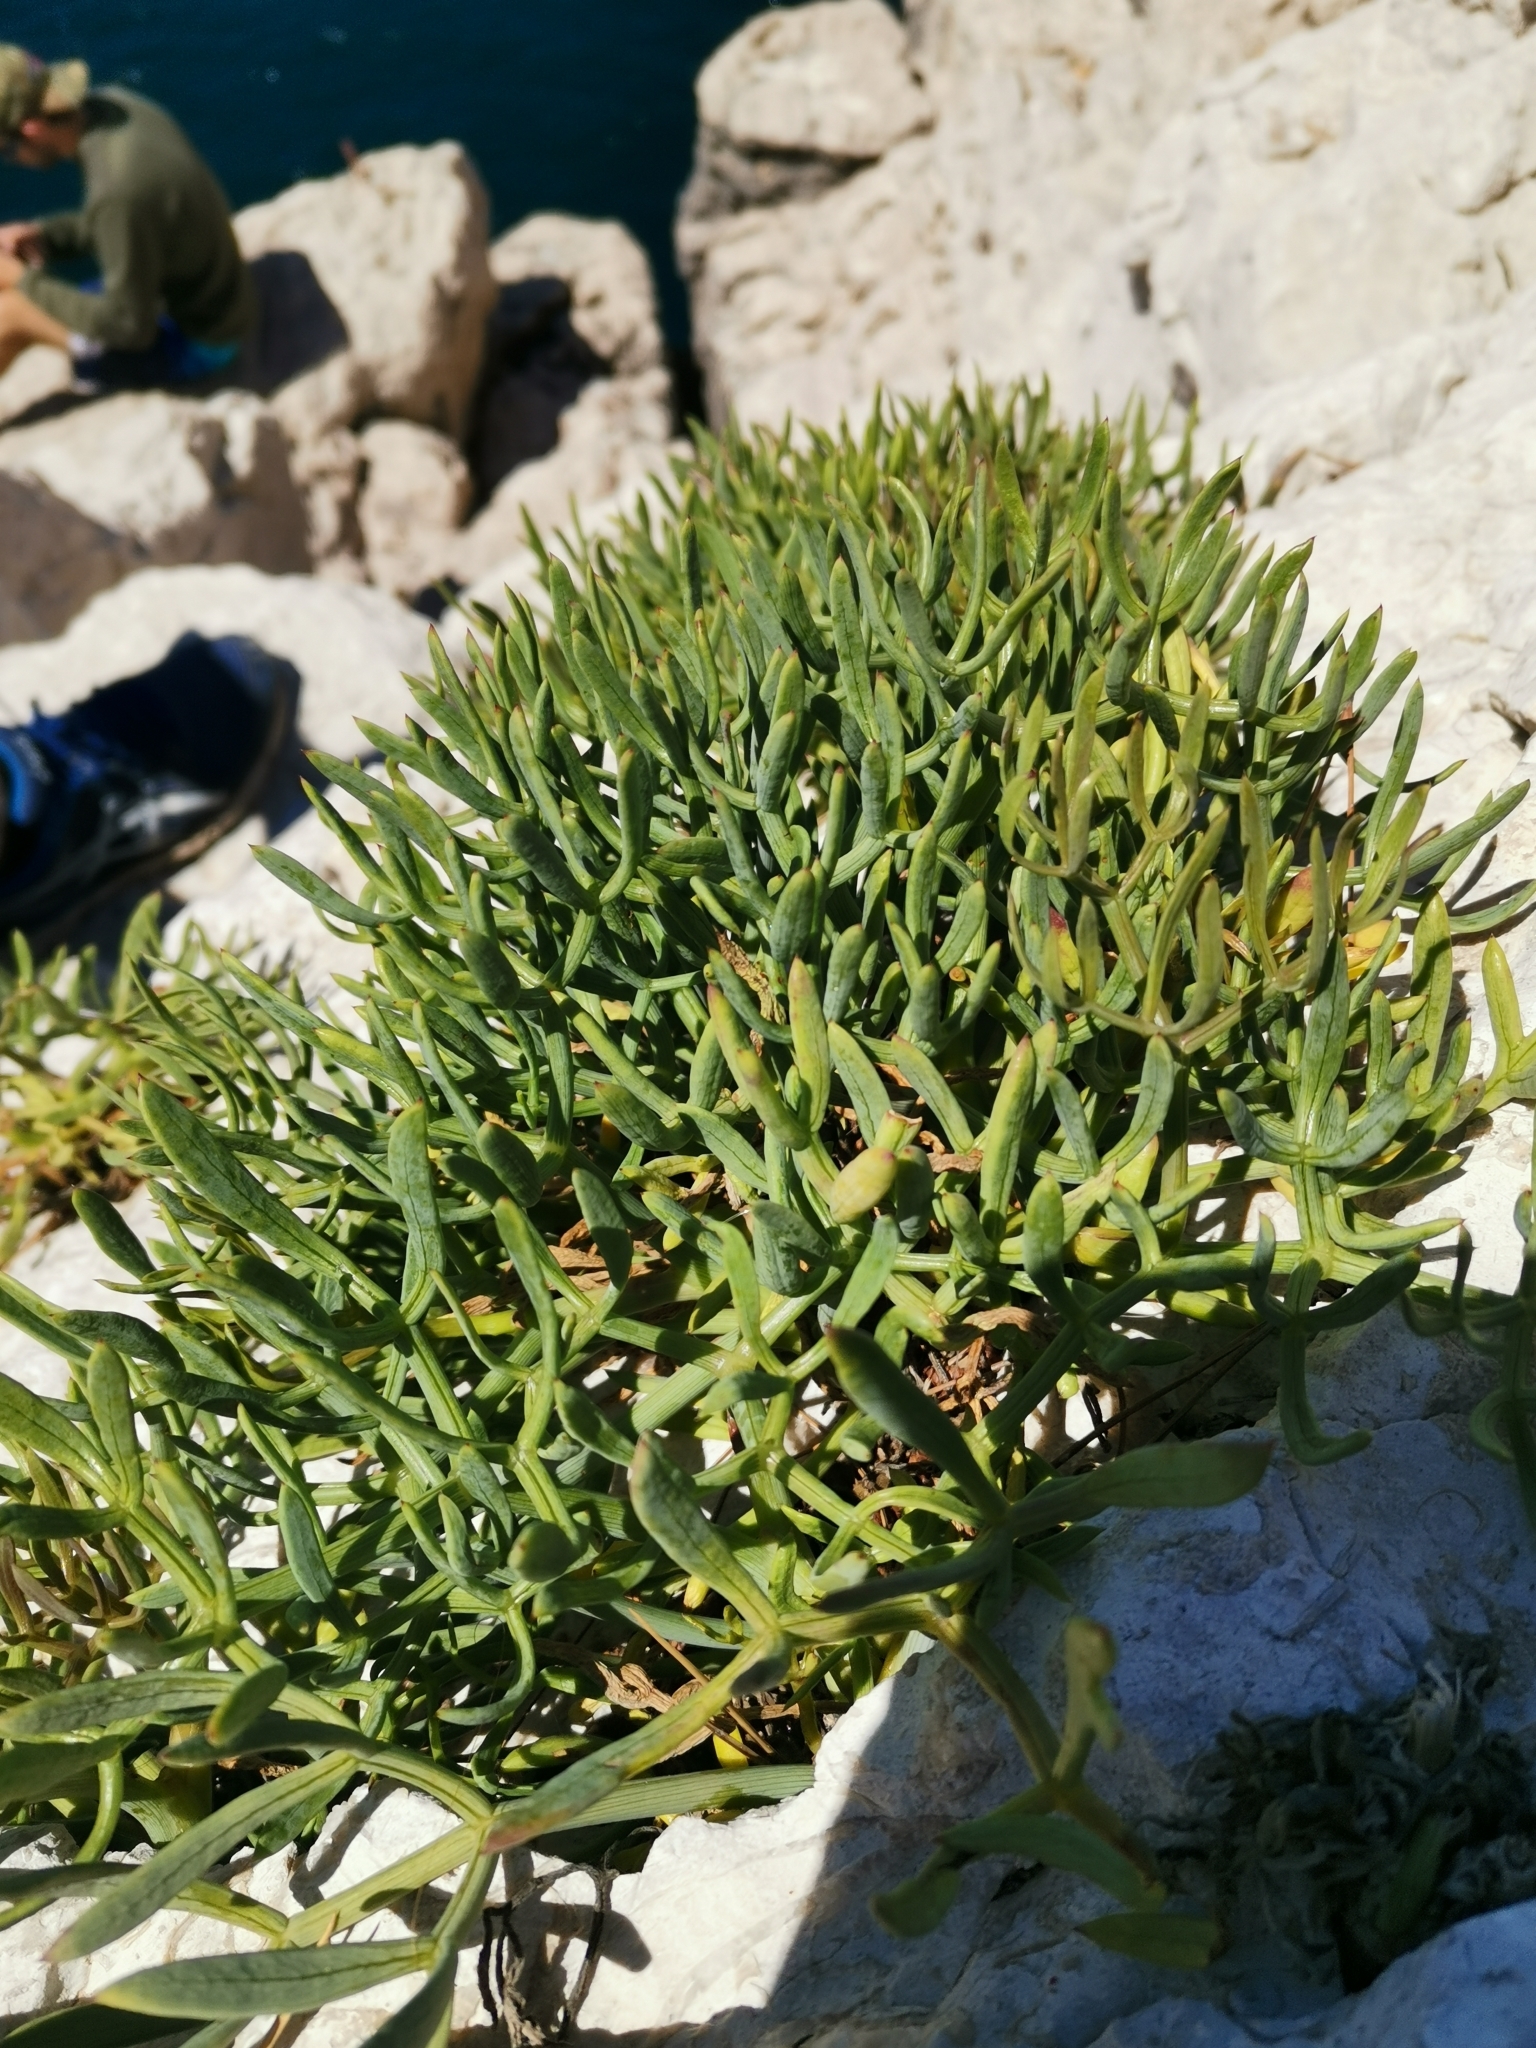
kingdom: Plantae
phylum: Tracheophyta
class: Magnoliopsida
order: Apiales
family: Apiaceae
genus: Crithmum
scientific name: Crithmum maritimum
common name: Rock samphire
